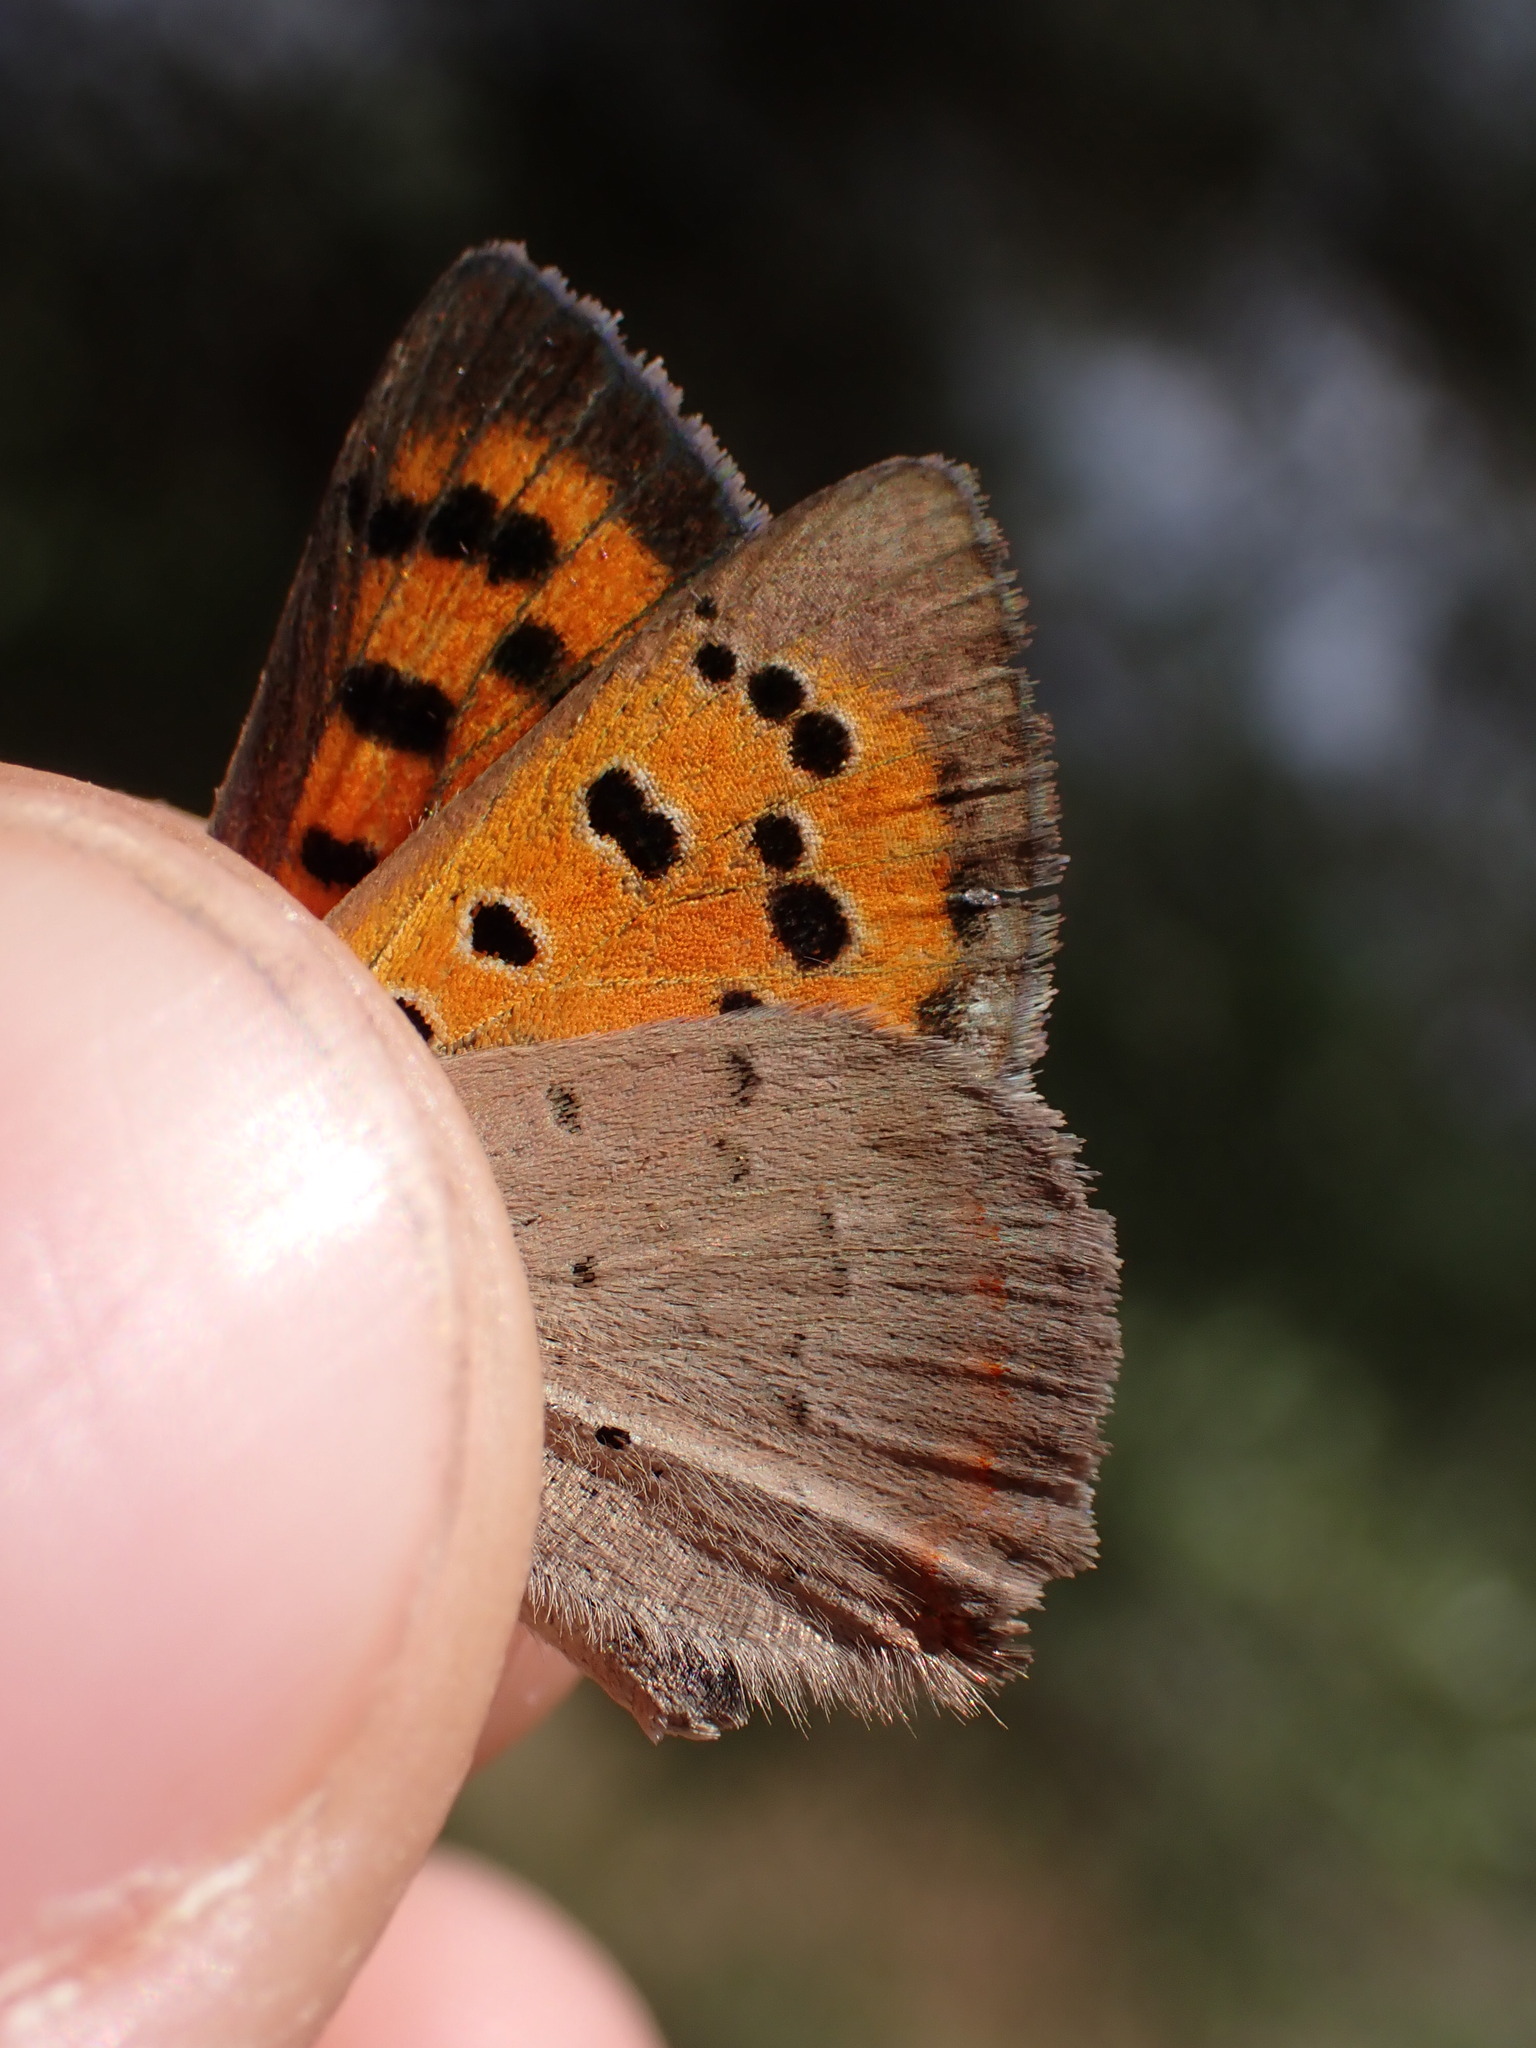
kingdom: Animalia
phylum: Arthropoda
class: Insecta
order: Lepidoptera
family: Lycaenidae
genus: Lycaena
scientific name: Lycaena phlaeas
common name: Small copper
